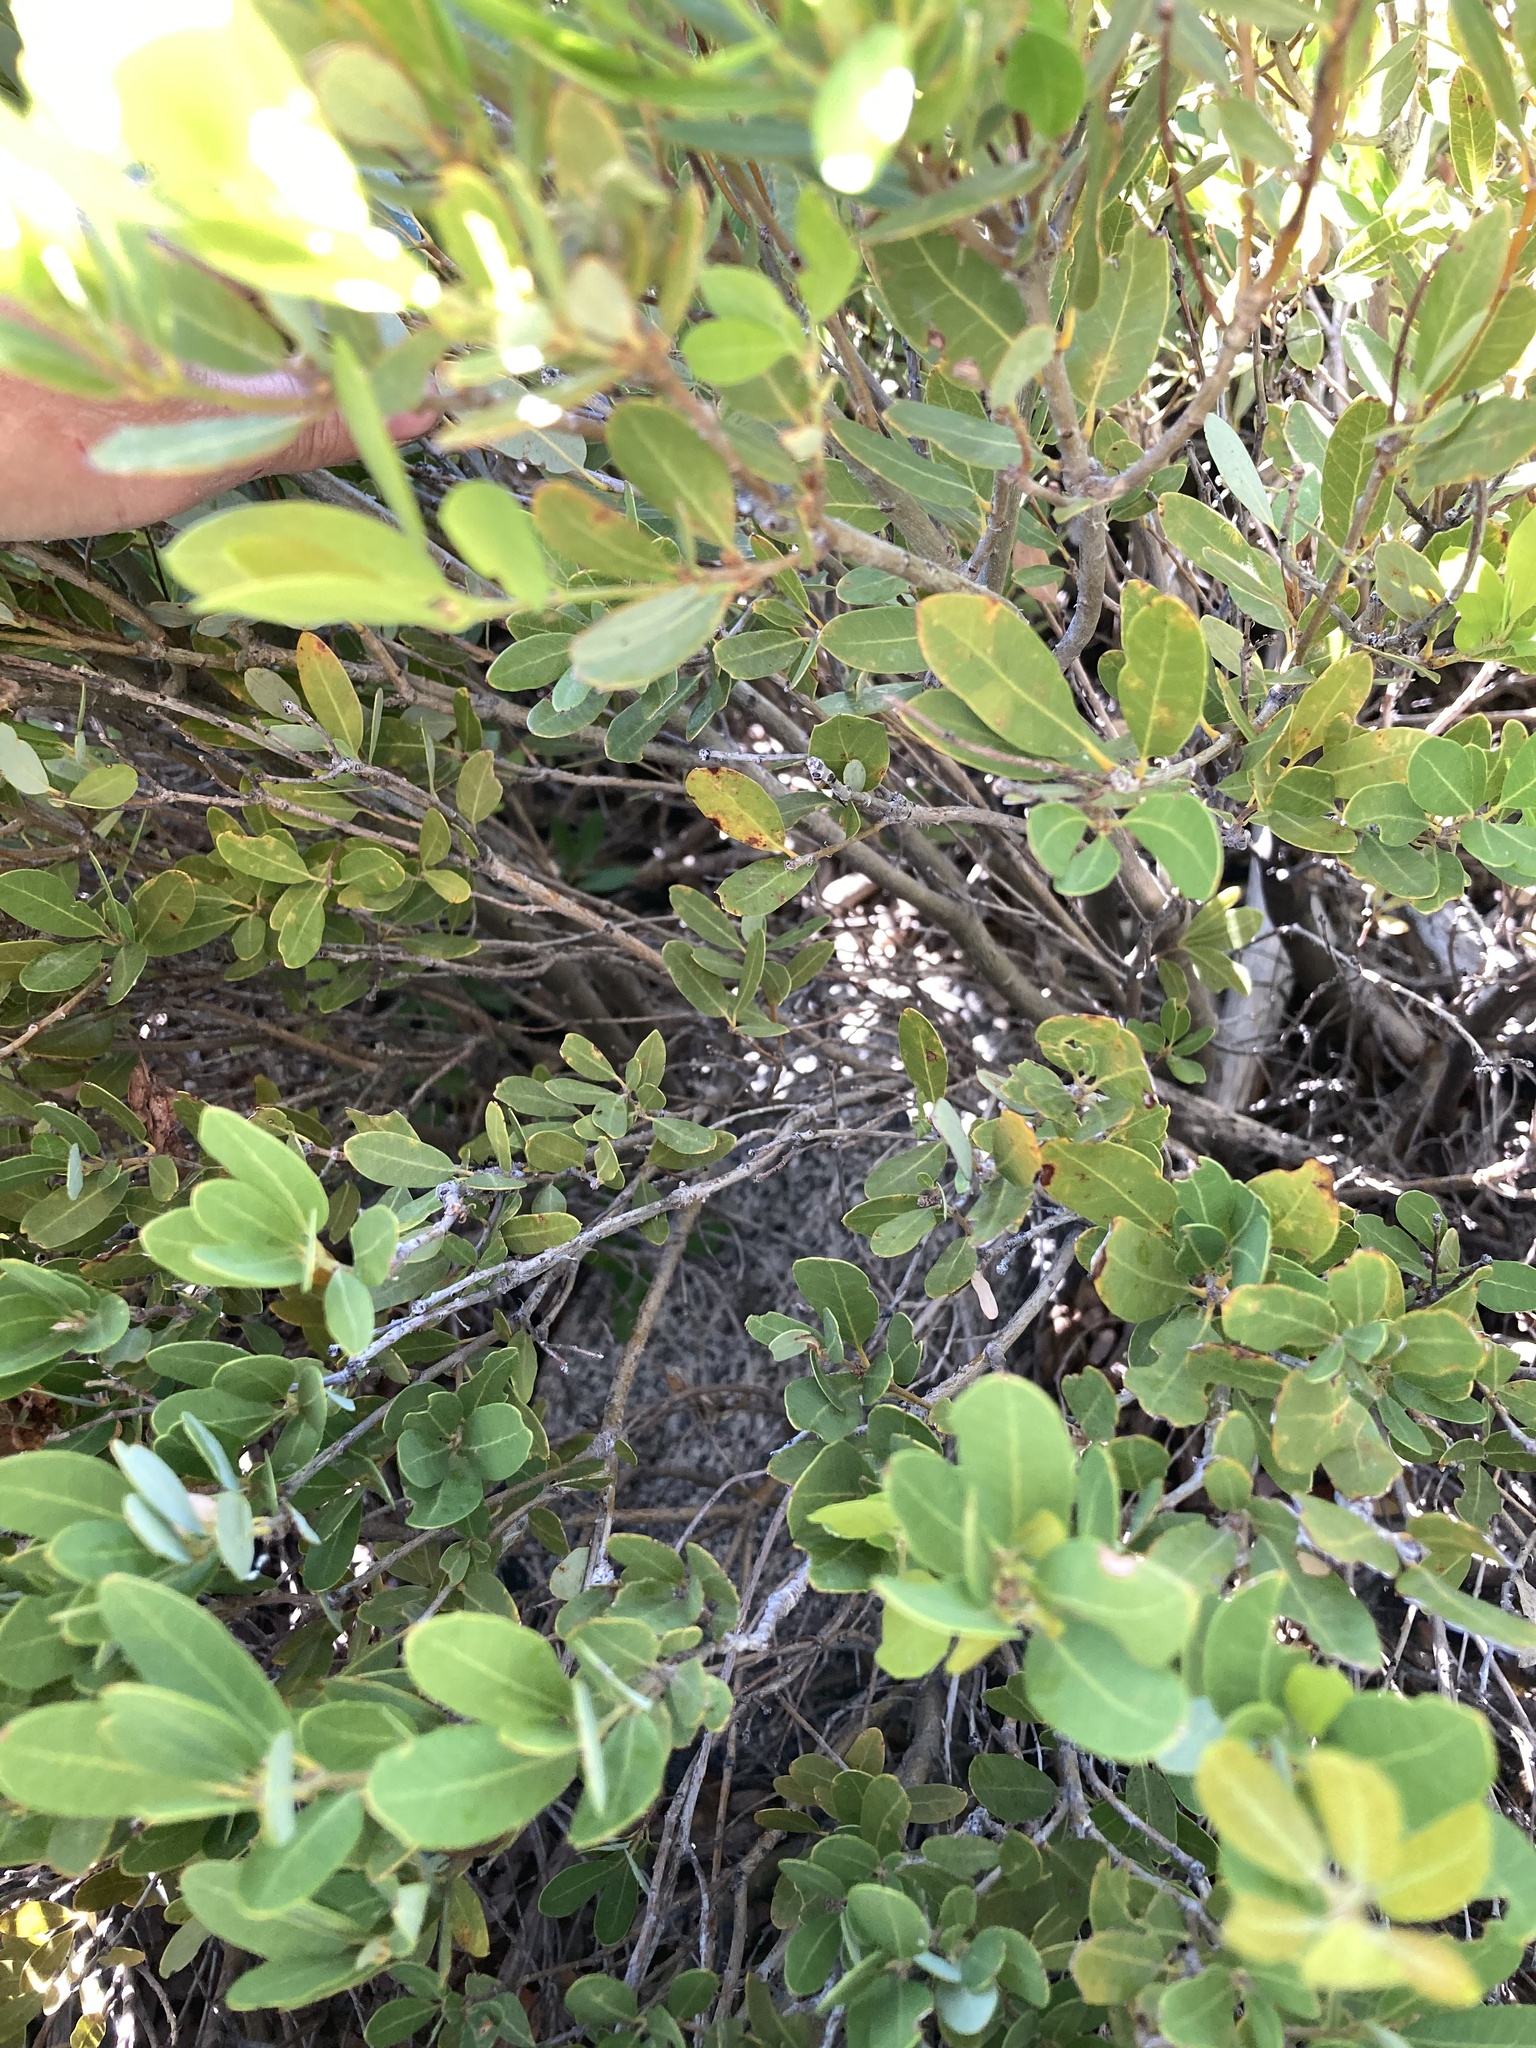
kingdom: Plantae
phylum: Tracheophyta
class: Magnoliopsida
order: Fagales
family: Fagaceae
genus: Quercus
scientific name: Quercus vacciniifolia
